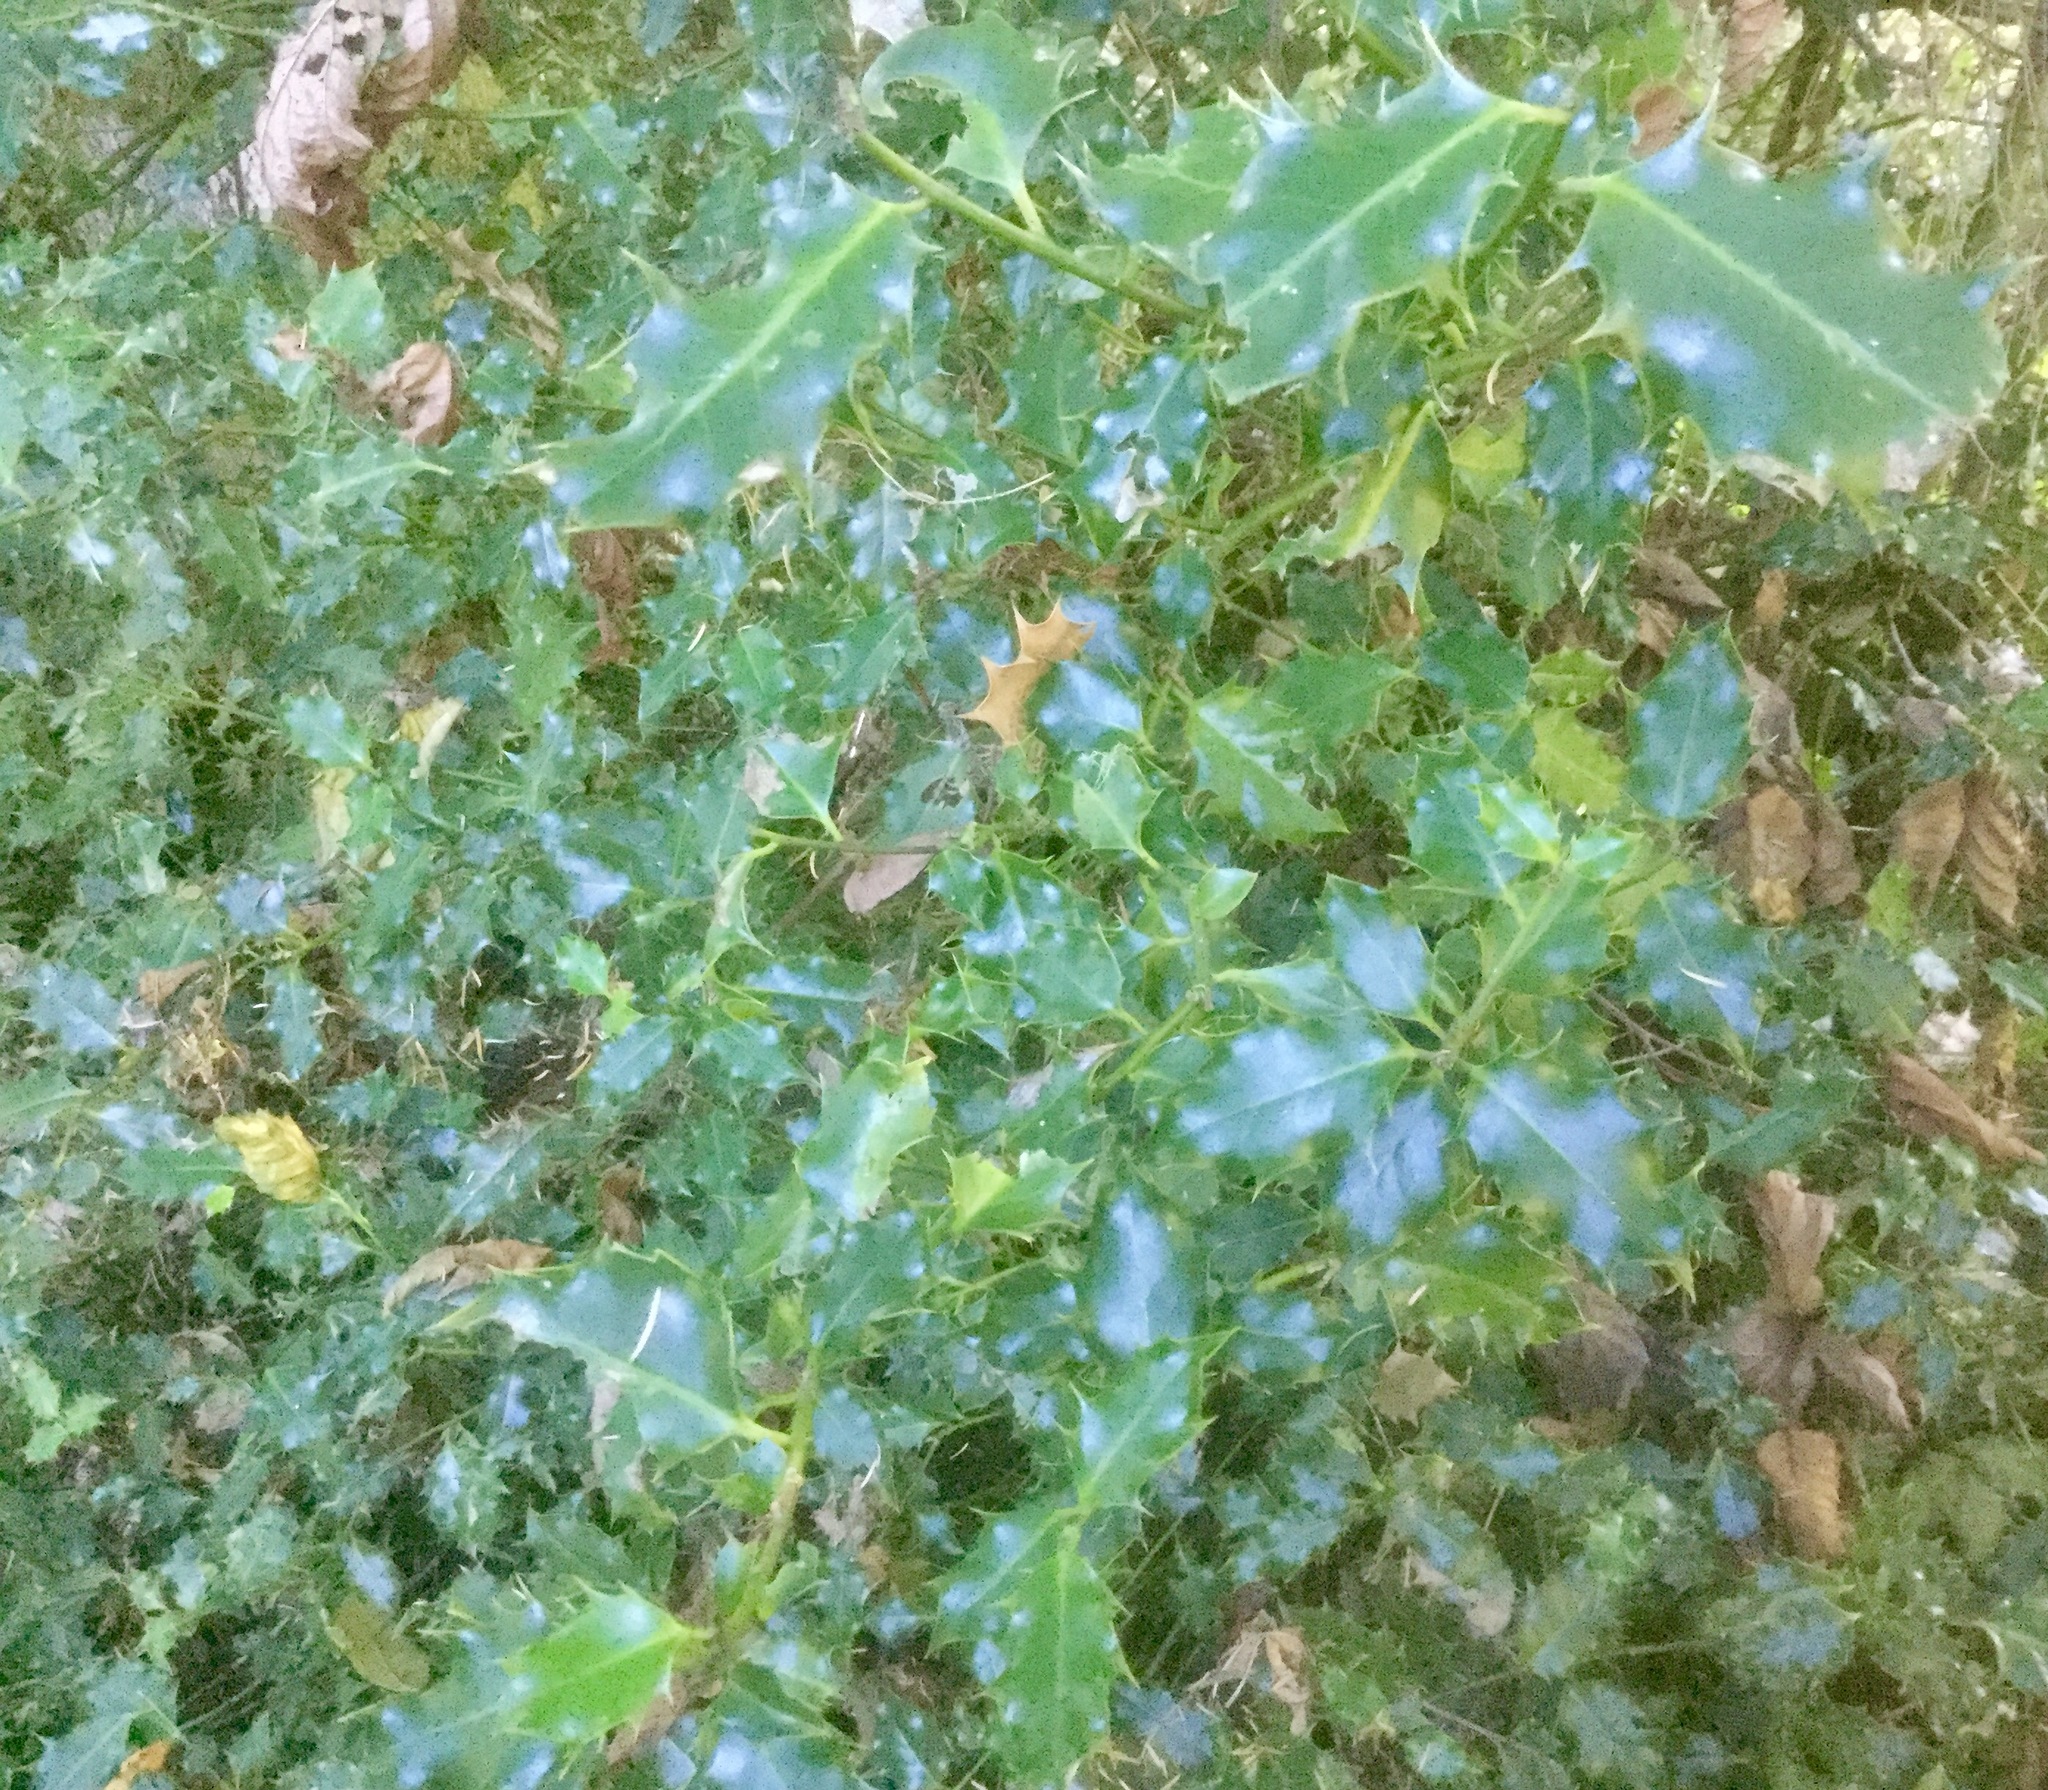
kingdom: Plantae
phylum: Tracheophyta
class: Magnoliopsida
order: Aquifoliales
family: Aquifoliaceae
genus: Ilex
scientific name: Ilex aquifolium
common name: English holly
